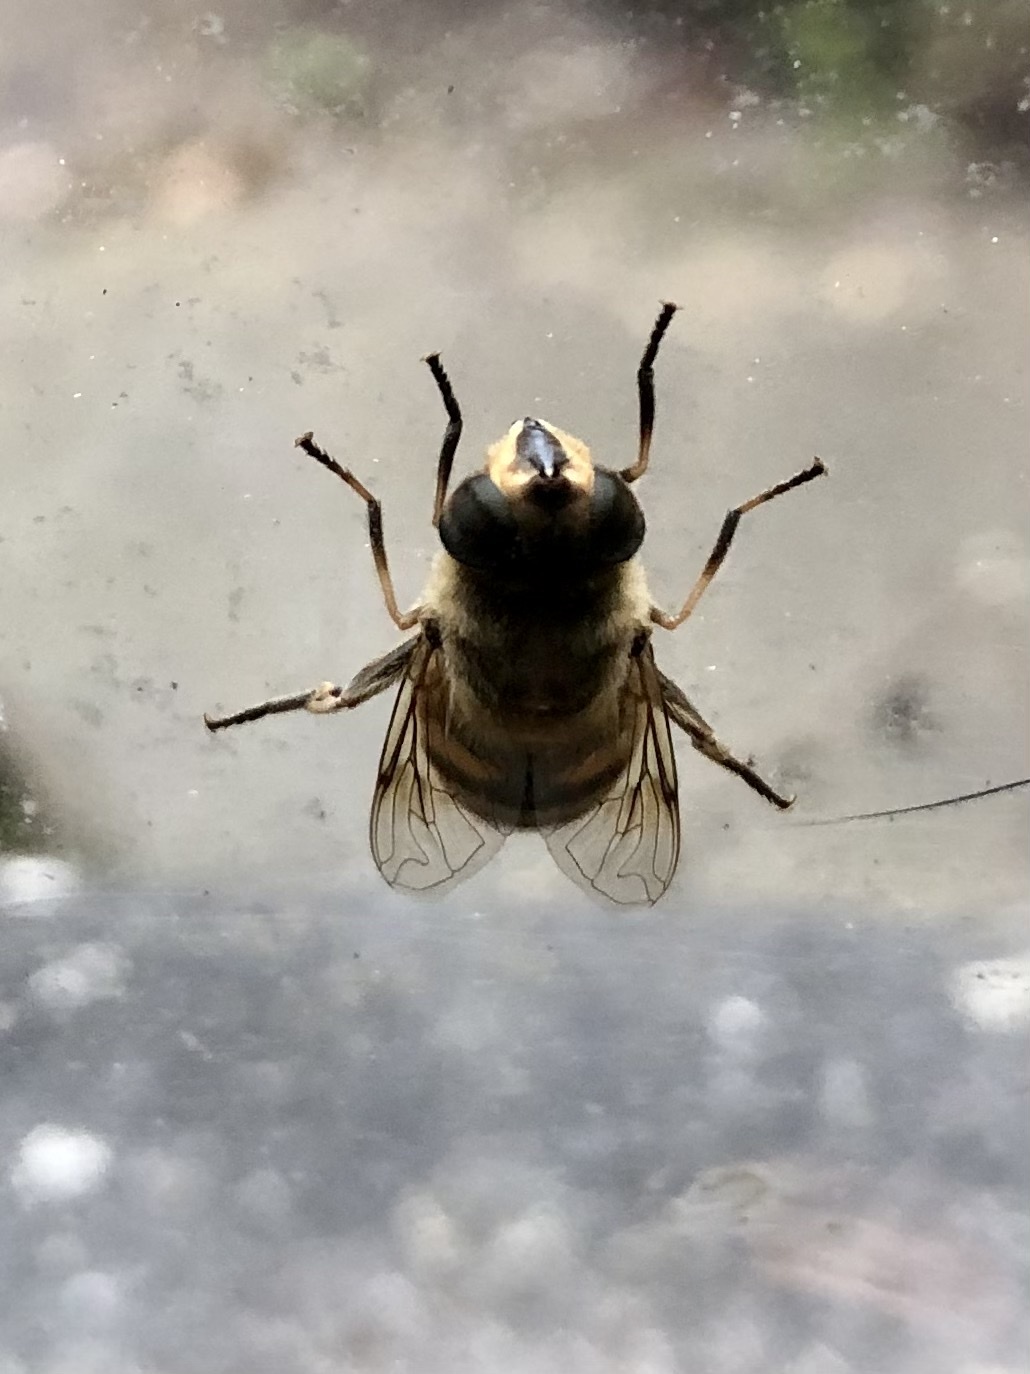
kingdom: Animalia
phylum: Arthropoda
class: Insecta
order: Diptera
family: Syrphidae
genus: Eristalis
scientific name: Eristalis tenax
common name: Drone fly
